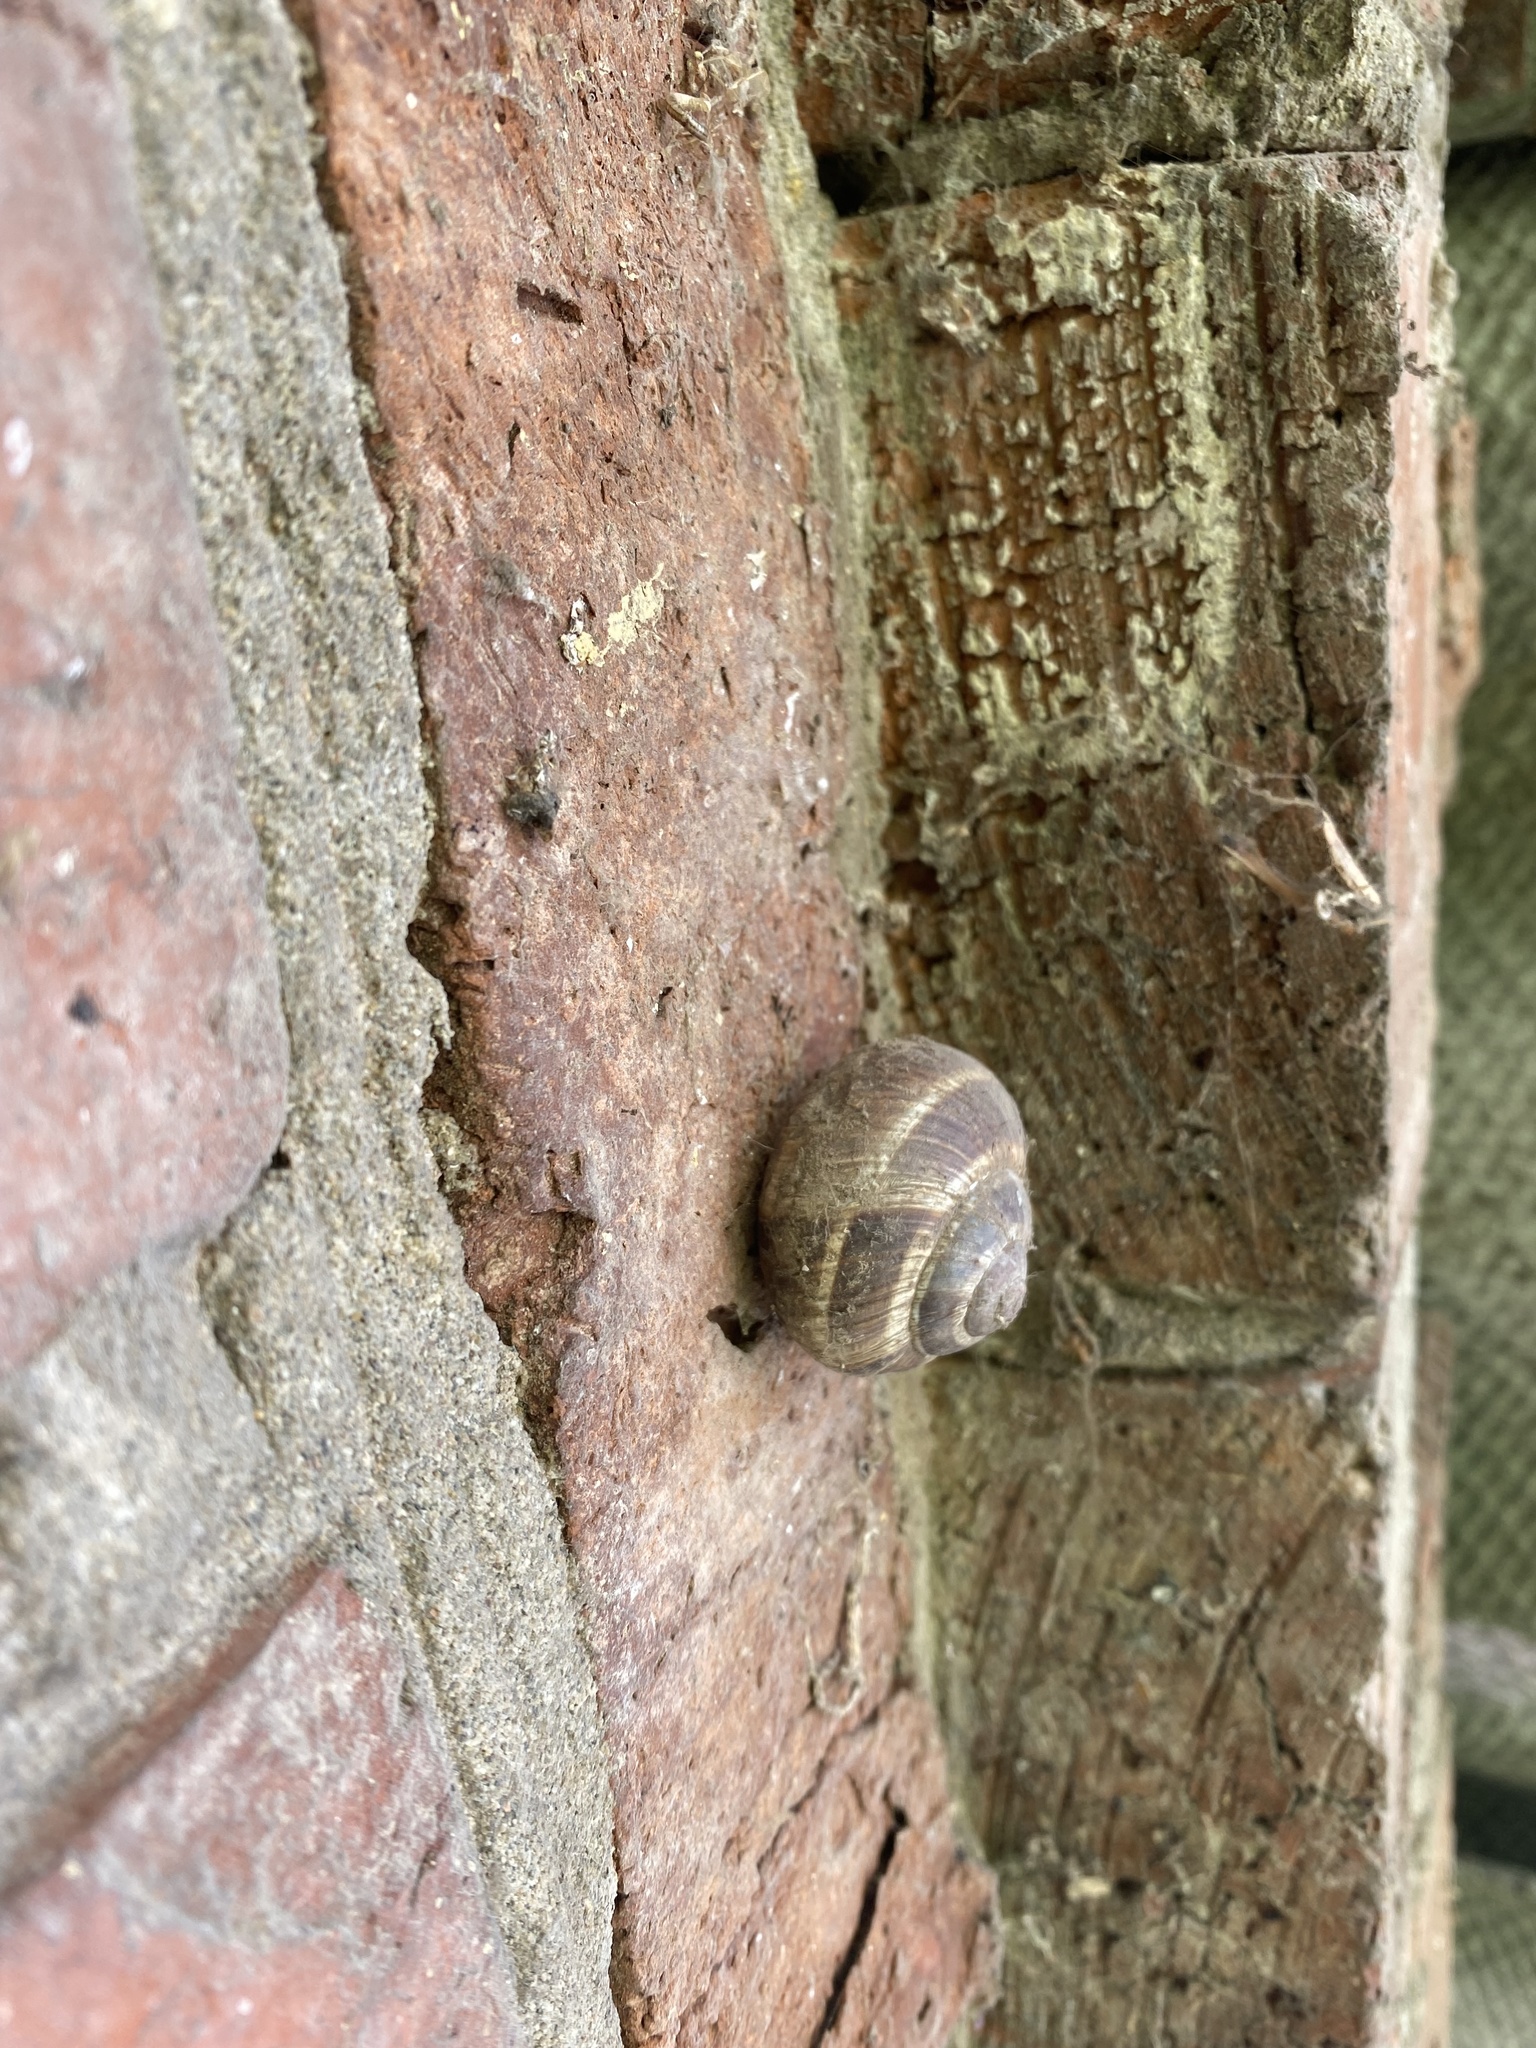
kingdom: Animalia
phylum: Mollusca
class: Gastropoda
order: Stylommatophora
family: Helicidae
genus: Helix
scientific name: Helix lucorum
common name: Turkish snail
